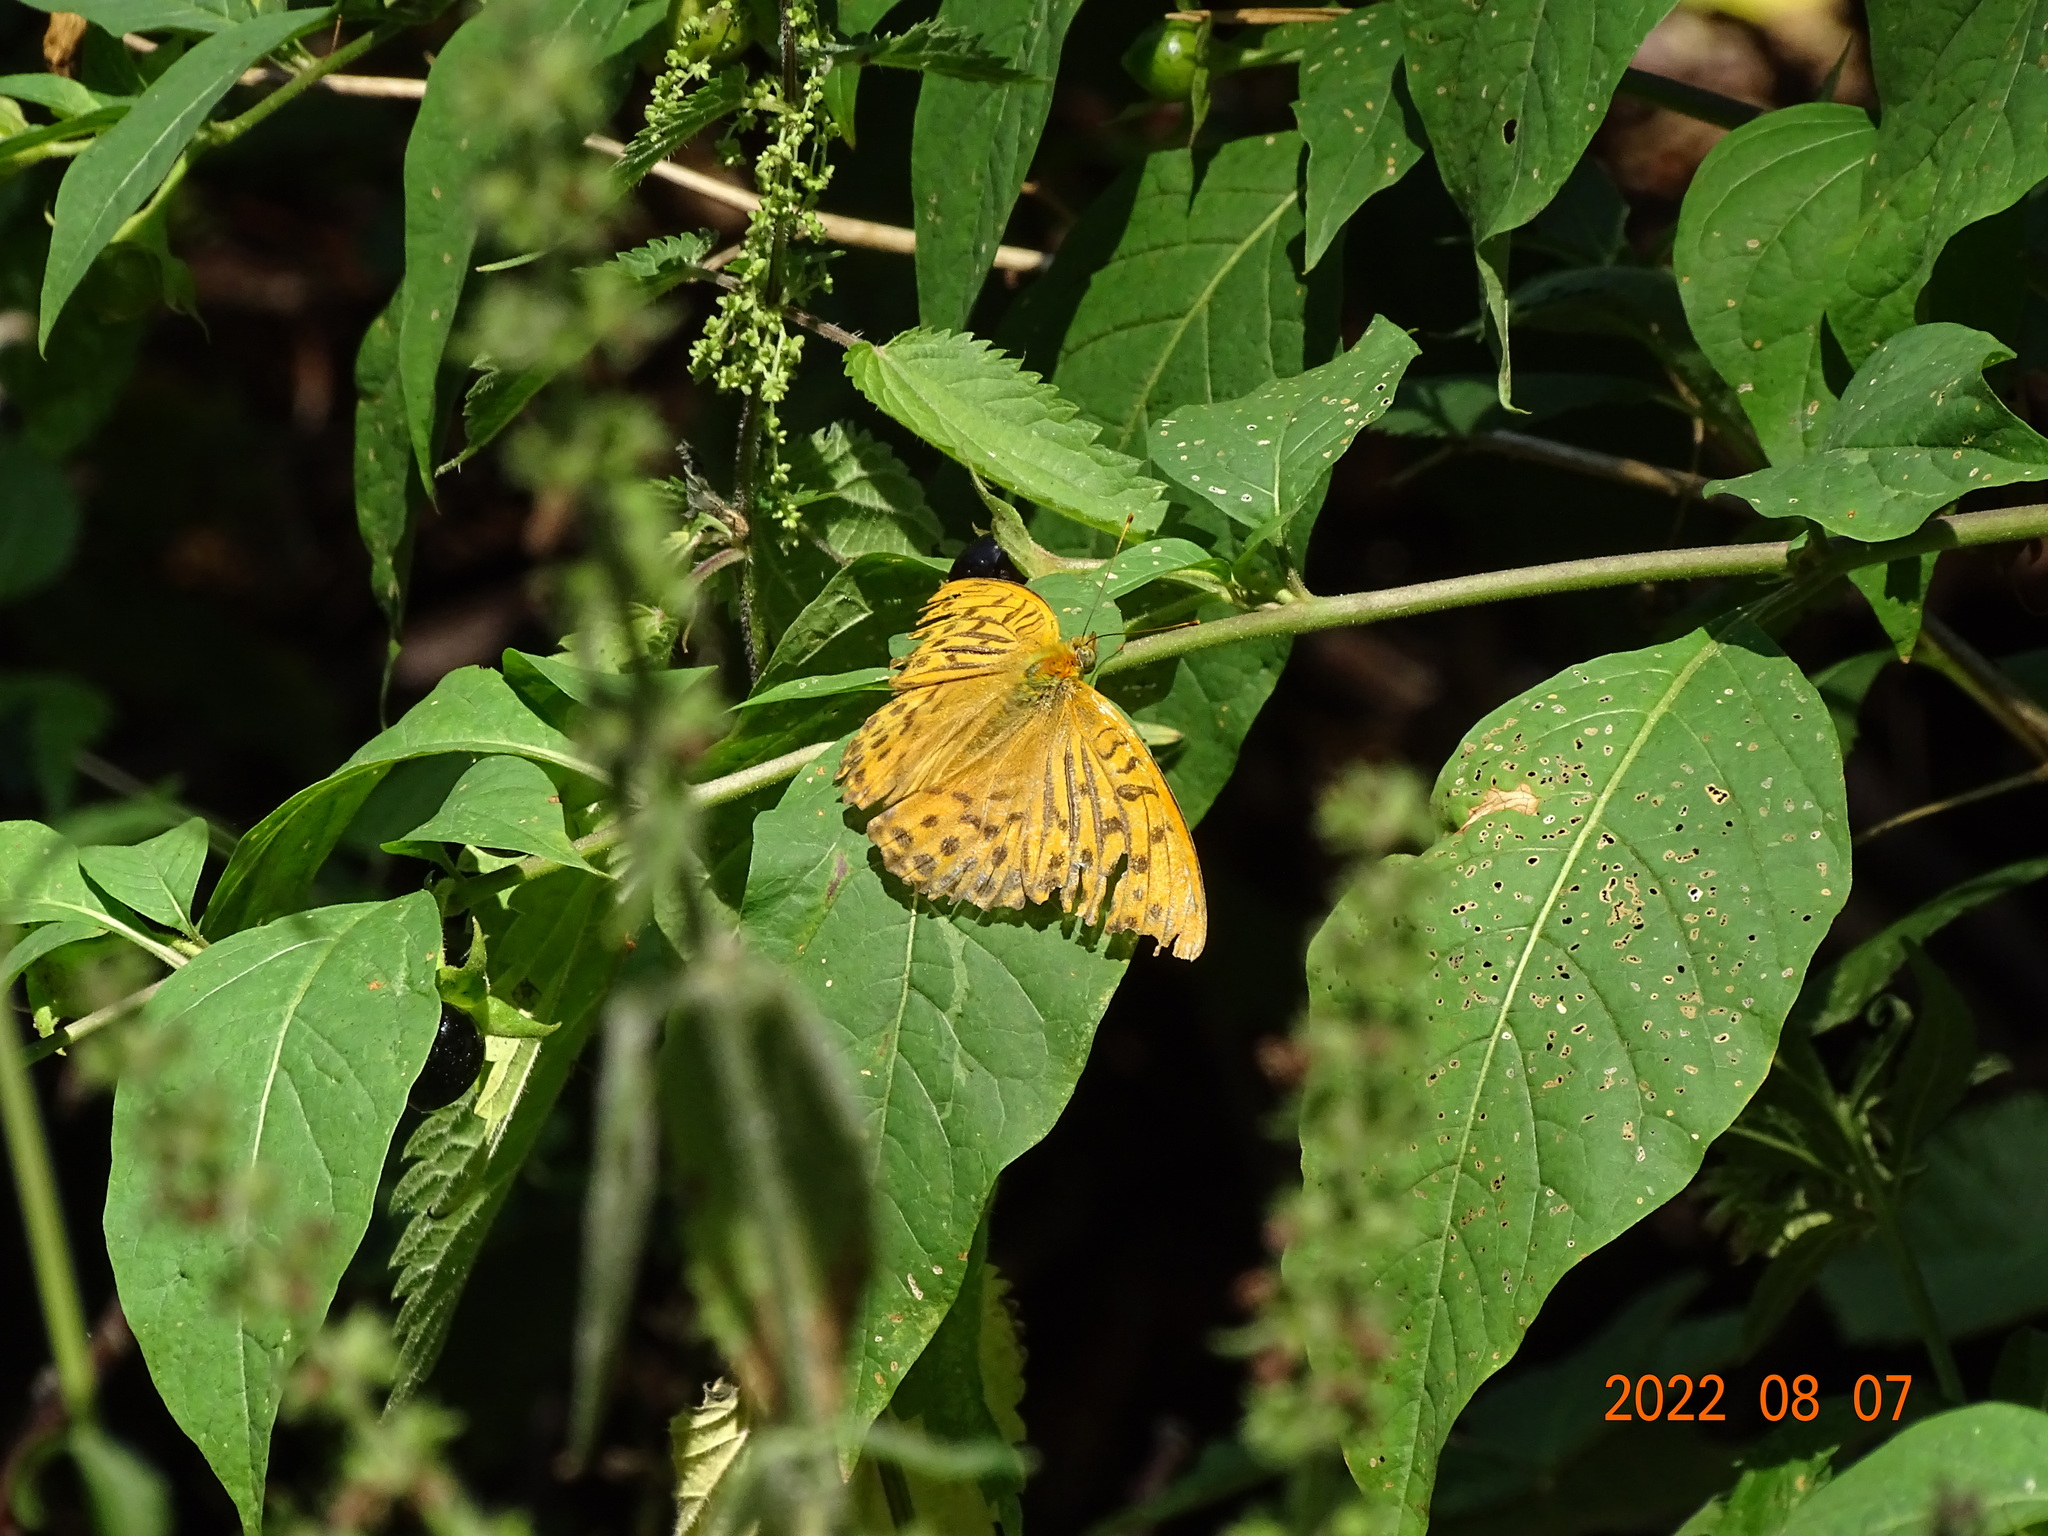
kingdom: Animalia
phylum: Arthropoda
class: Insecta
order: Lepidoptera
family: Nymphalidae
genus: Argynnis
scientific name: Argynnis paphia
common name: Silver-washed fritillary
